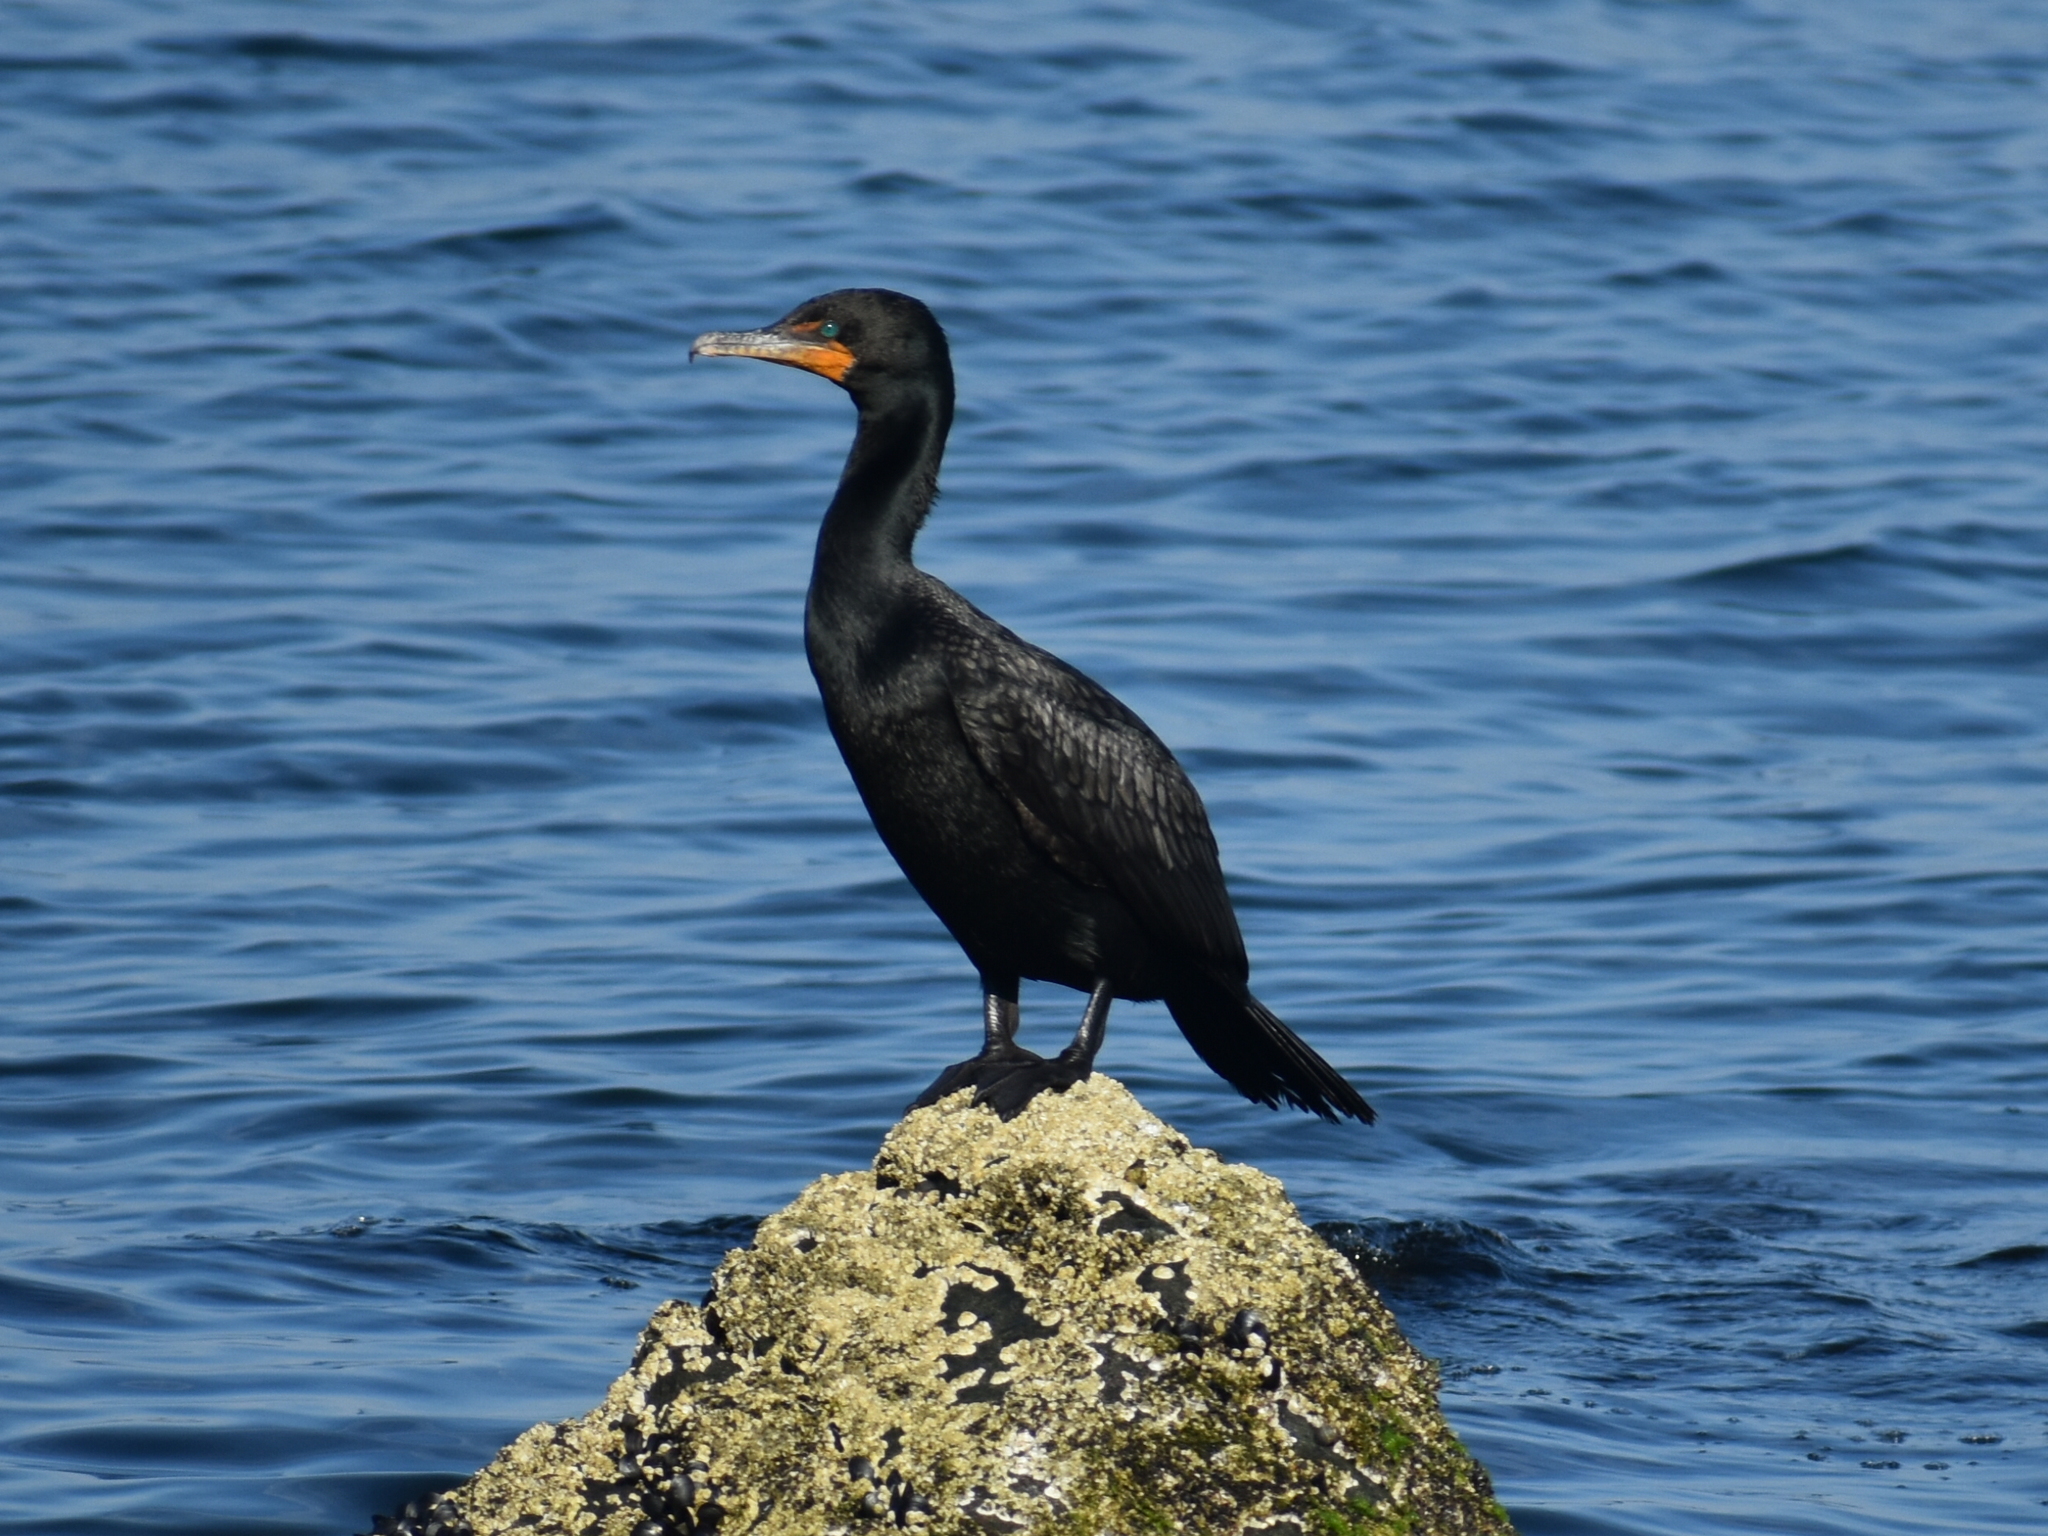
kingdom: Animalia
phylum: Chordata
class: Aves
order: Suliformes
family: Phalacrocoracidae
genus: Phalacrocorax
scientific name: Phalacrocorax auritus
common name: Double-crested cormorant
